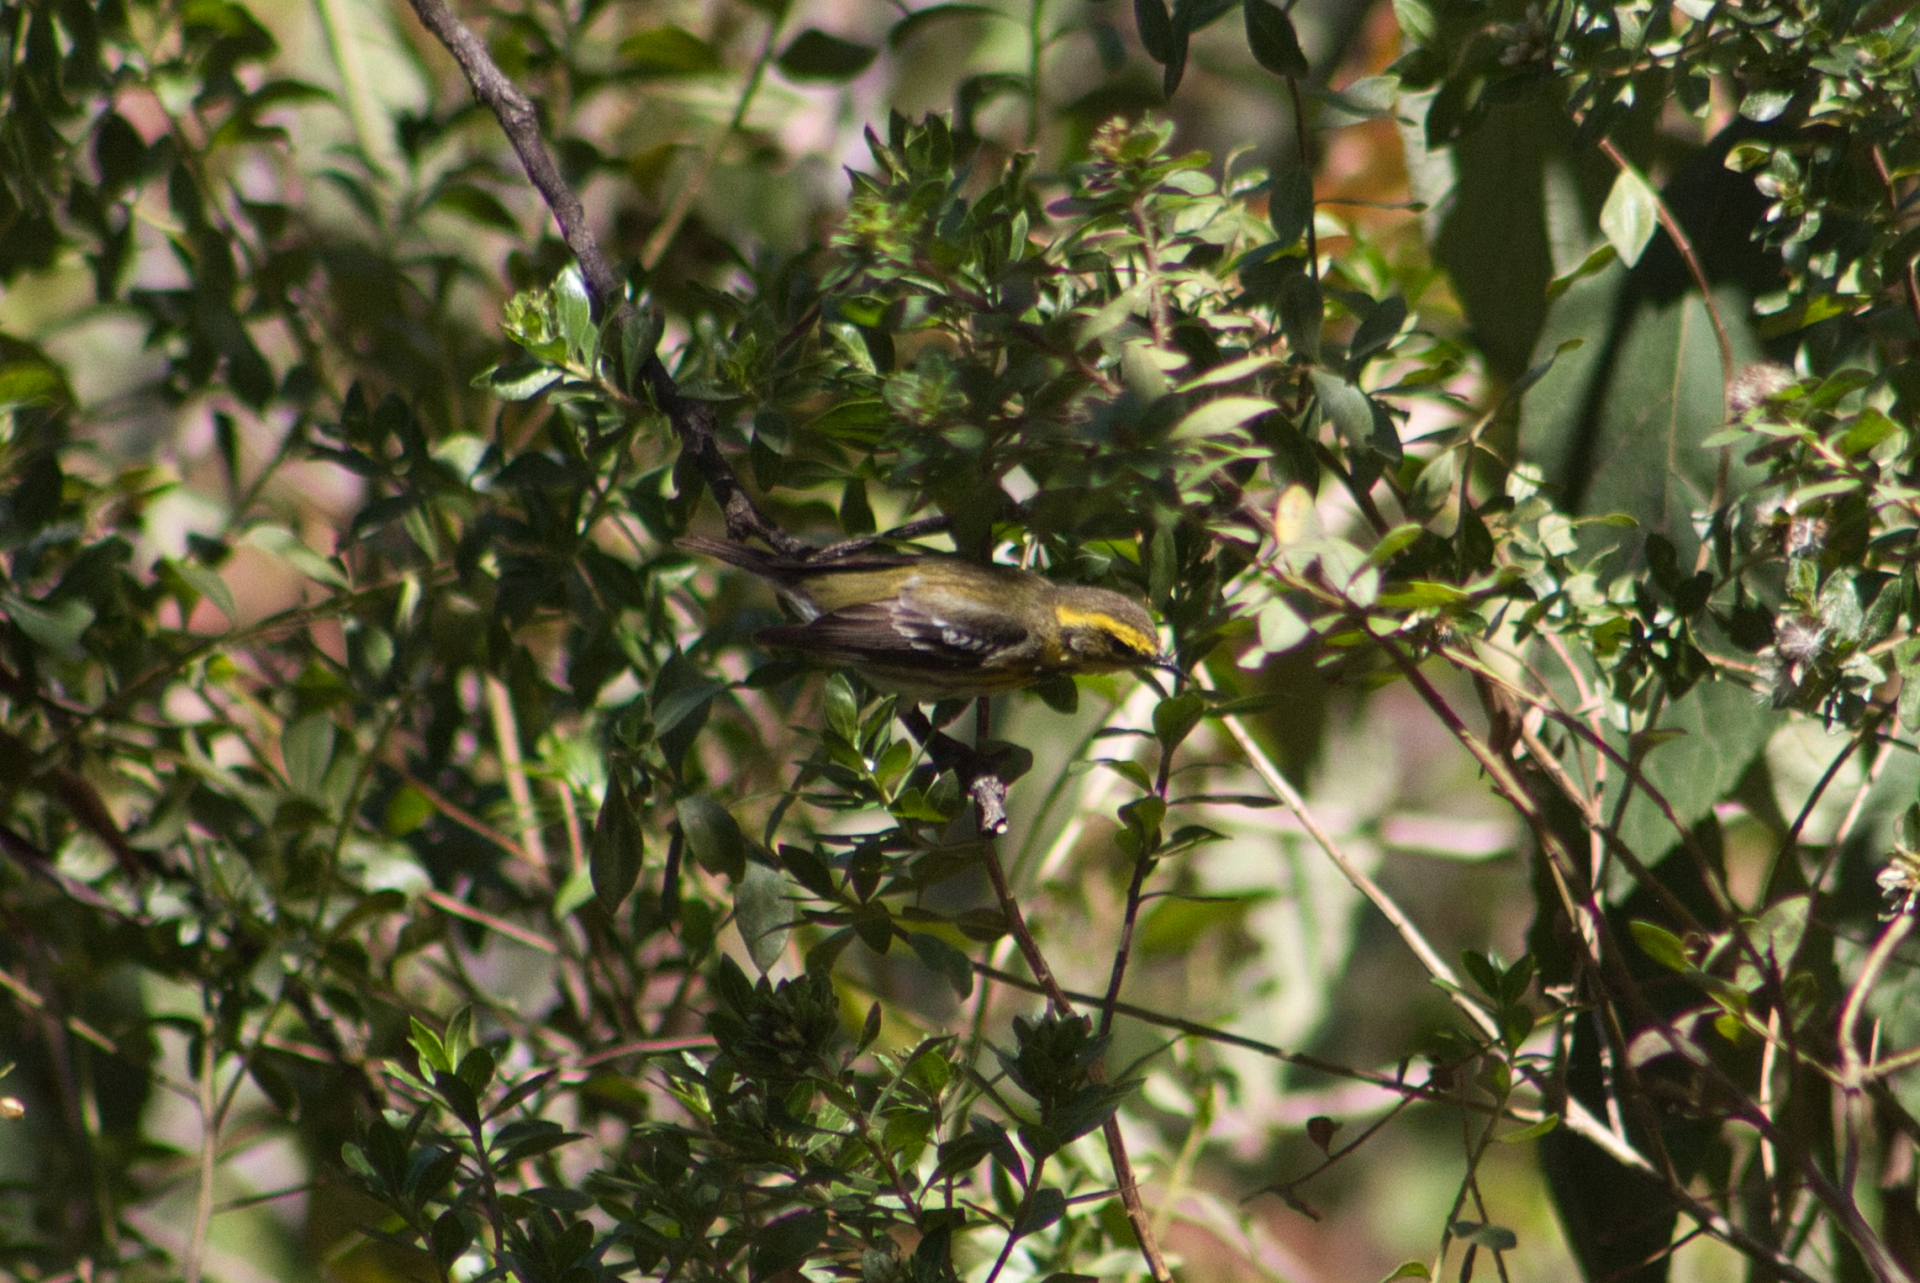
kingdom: Animalia
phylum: Chordata
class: Aves
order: Passeriformes
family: Parulidae
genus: Setophaga
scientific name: Setophaga townsendi
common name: Townsend's warbler
